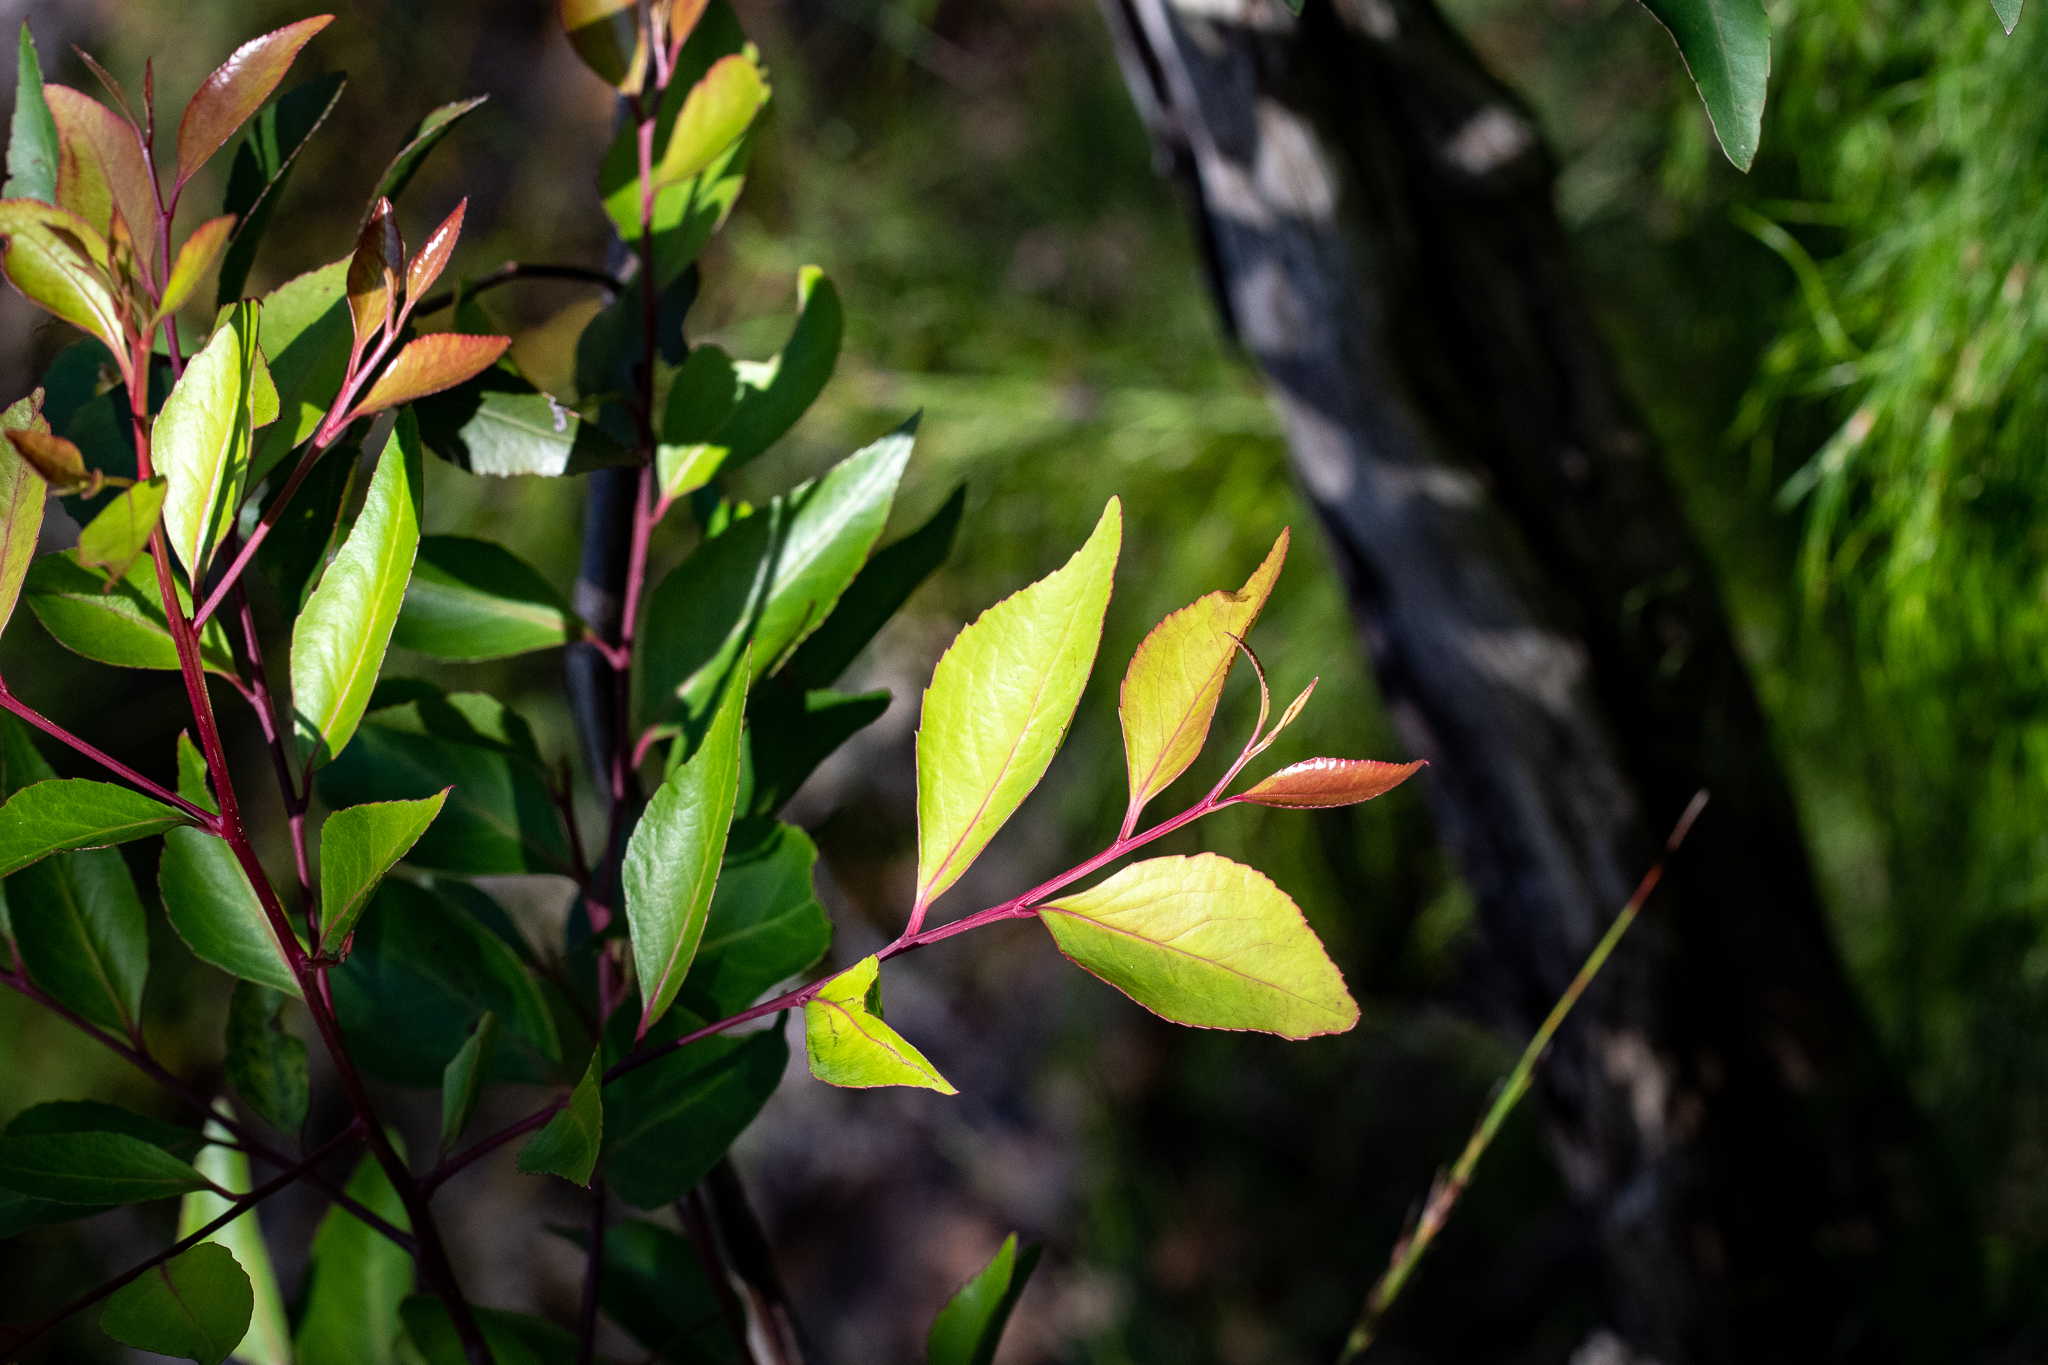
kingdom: Plantae
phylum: Tracheophyta
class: Magnoliopsida
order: Celastrales
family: Celastraceae
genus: Gymnosporia
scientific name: Gymnosporia acuminata
